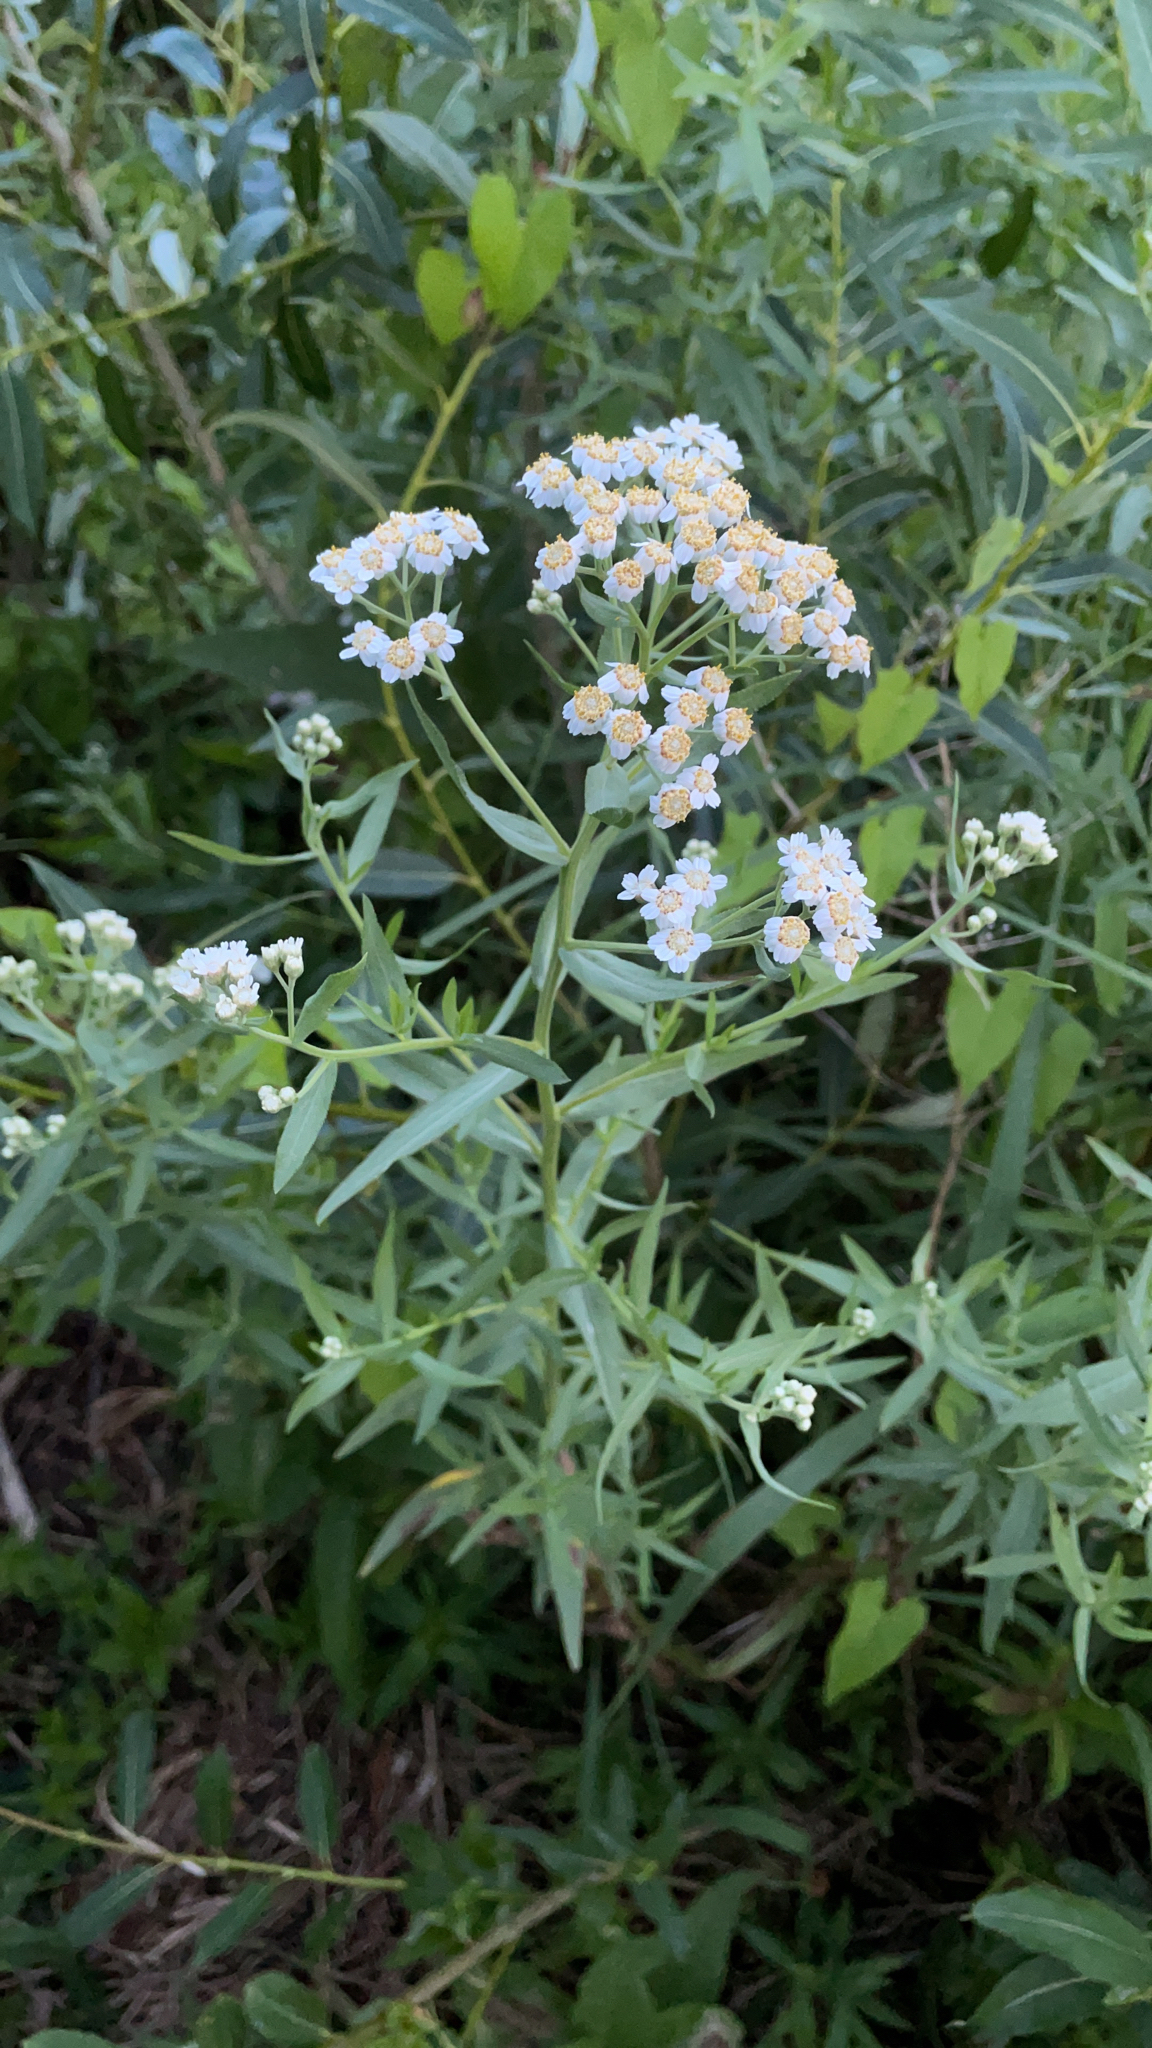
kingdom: Plantae
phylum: Tracheophyta
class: Magnoliopsida
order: Asterales
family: Asteraceae
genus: Achillea
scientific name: Achillea salicifolia
